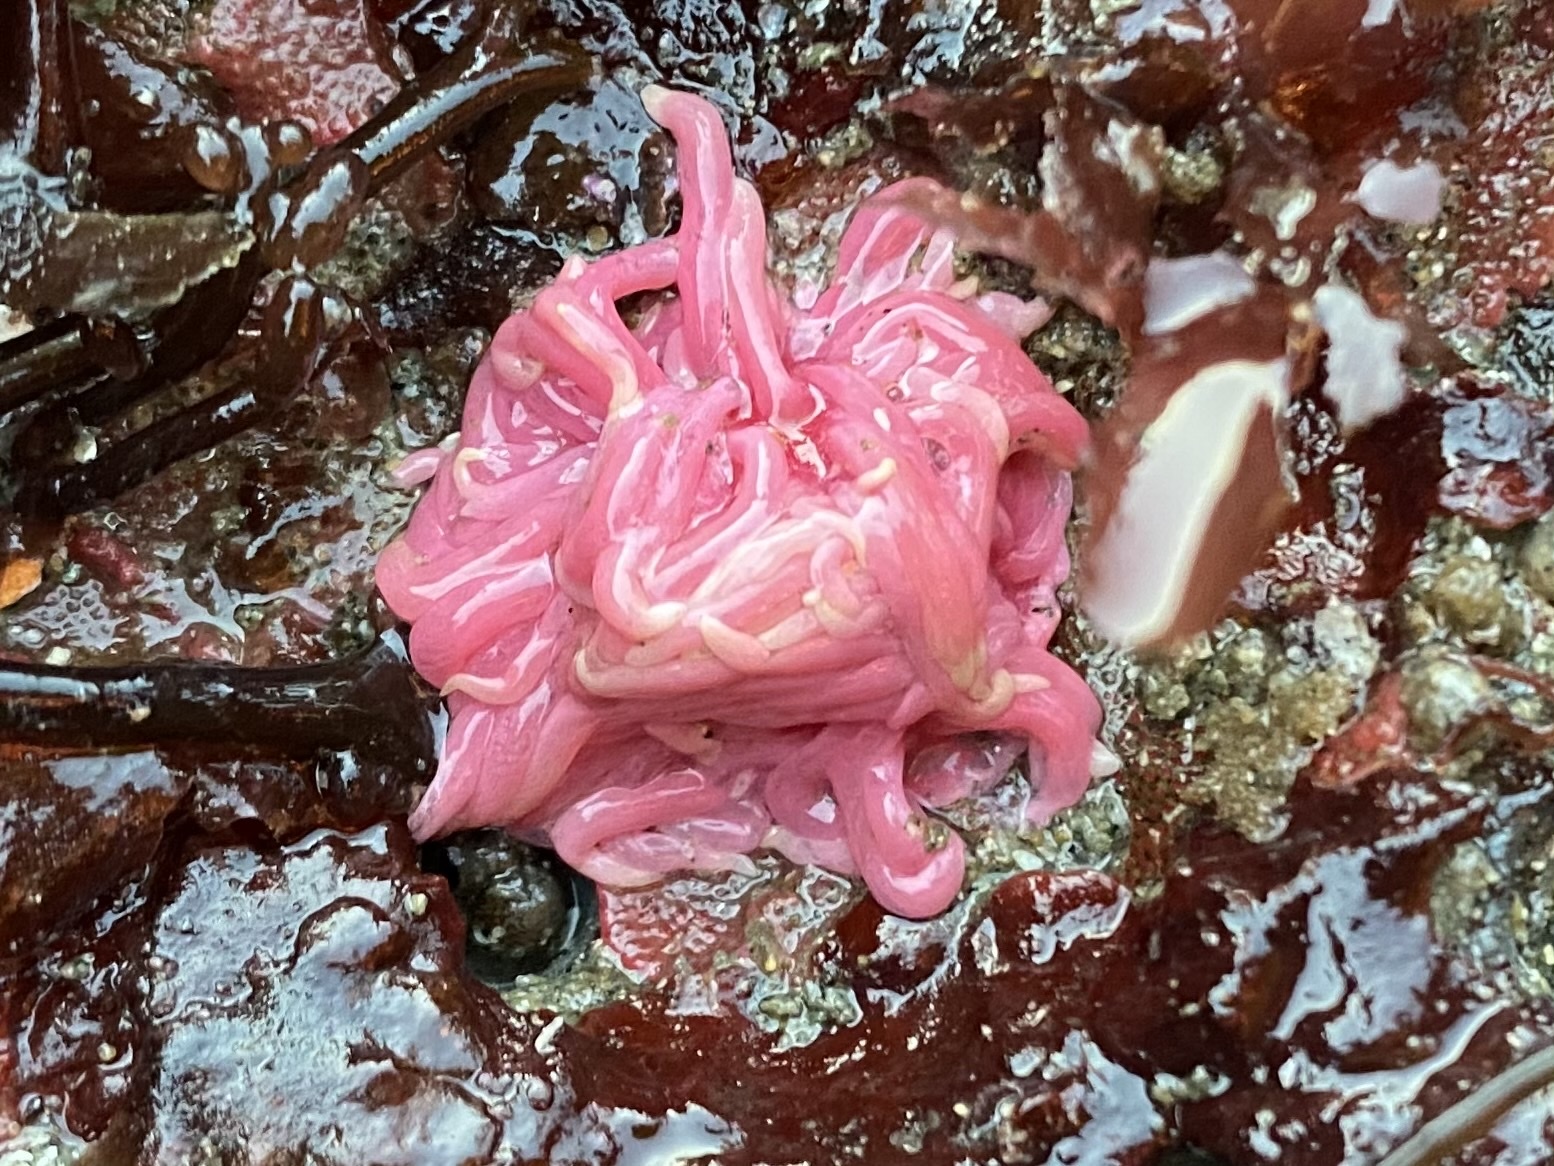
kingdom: Animalia
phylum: Mollusca
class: Gastropoda
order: Nudibranchia
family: Goniodorididae
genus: Okenia
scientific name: Okenia
